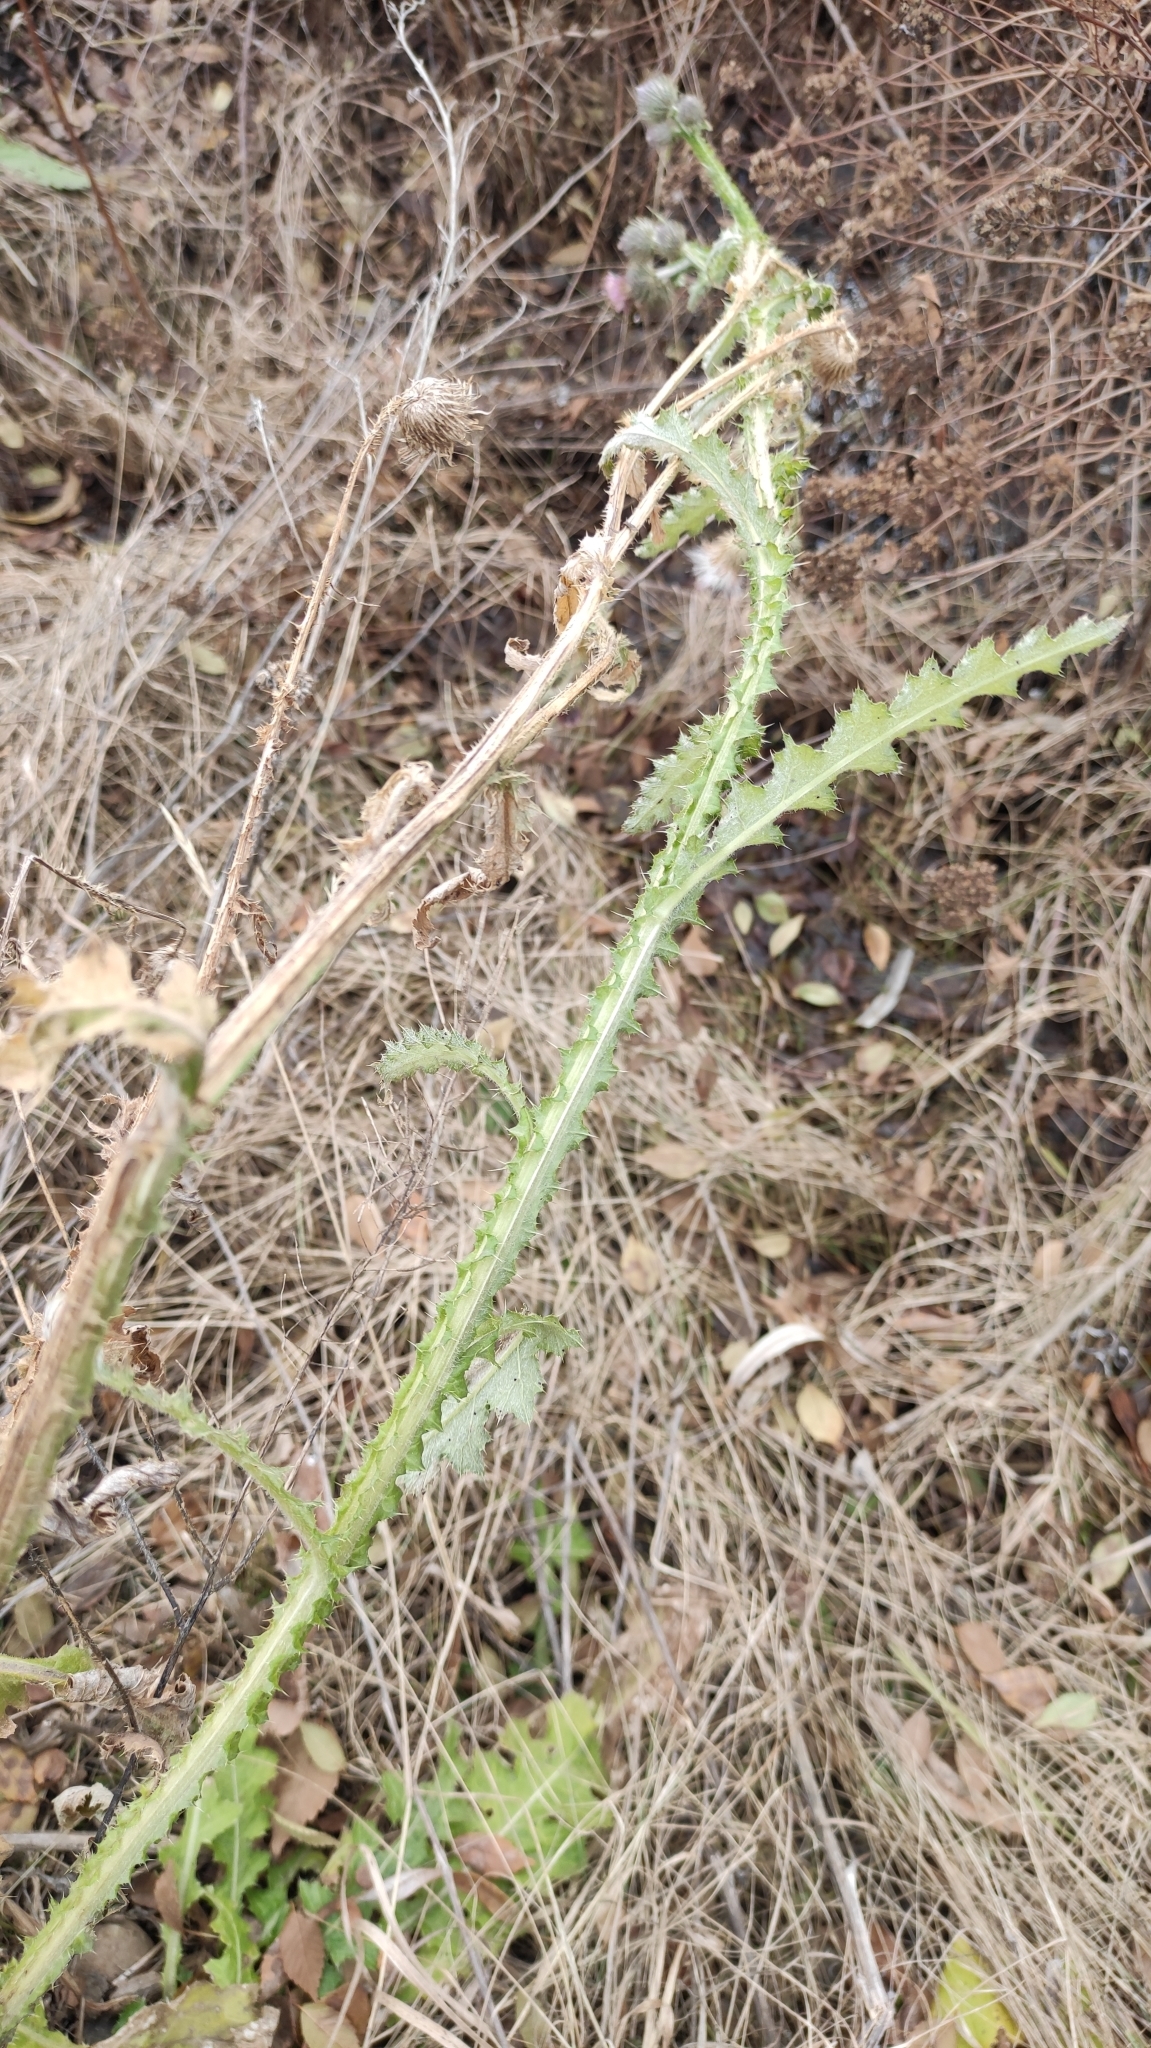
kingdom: Plantae
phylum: Tracheophyta
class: Magnoliopsida
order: Asterales
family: Asteraceae
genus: Carduus
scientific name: Carduus crispus
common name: Welted thistle
